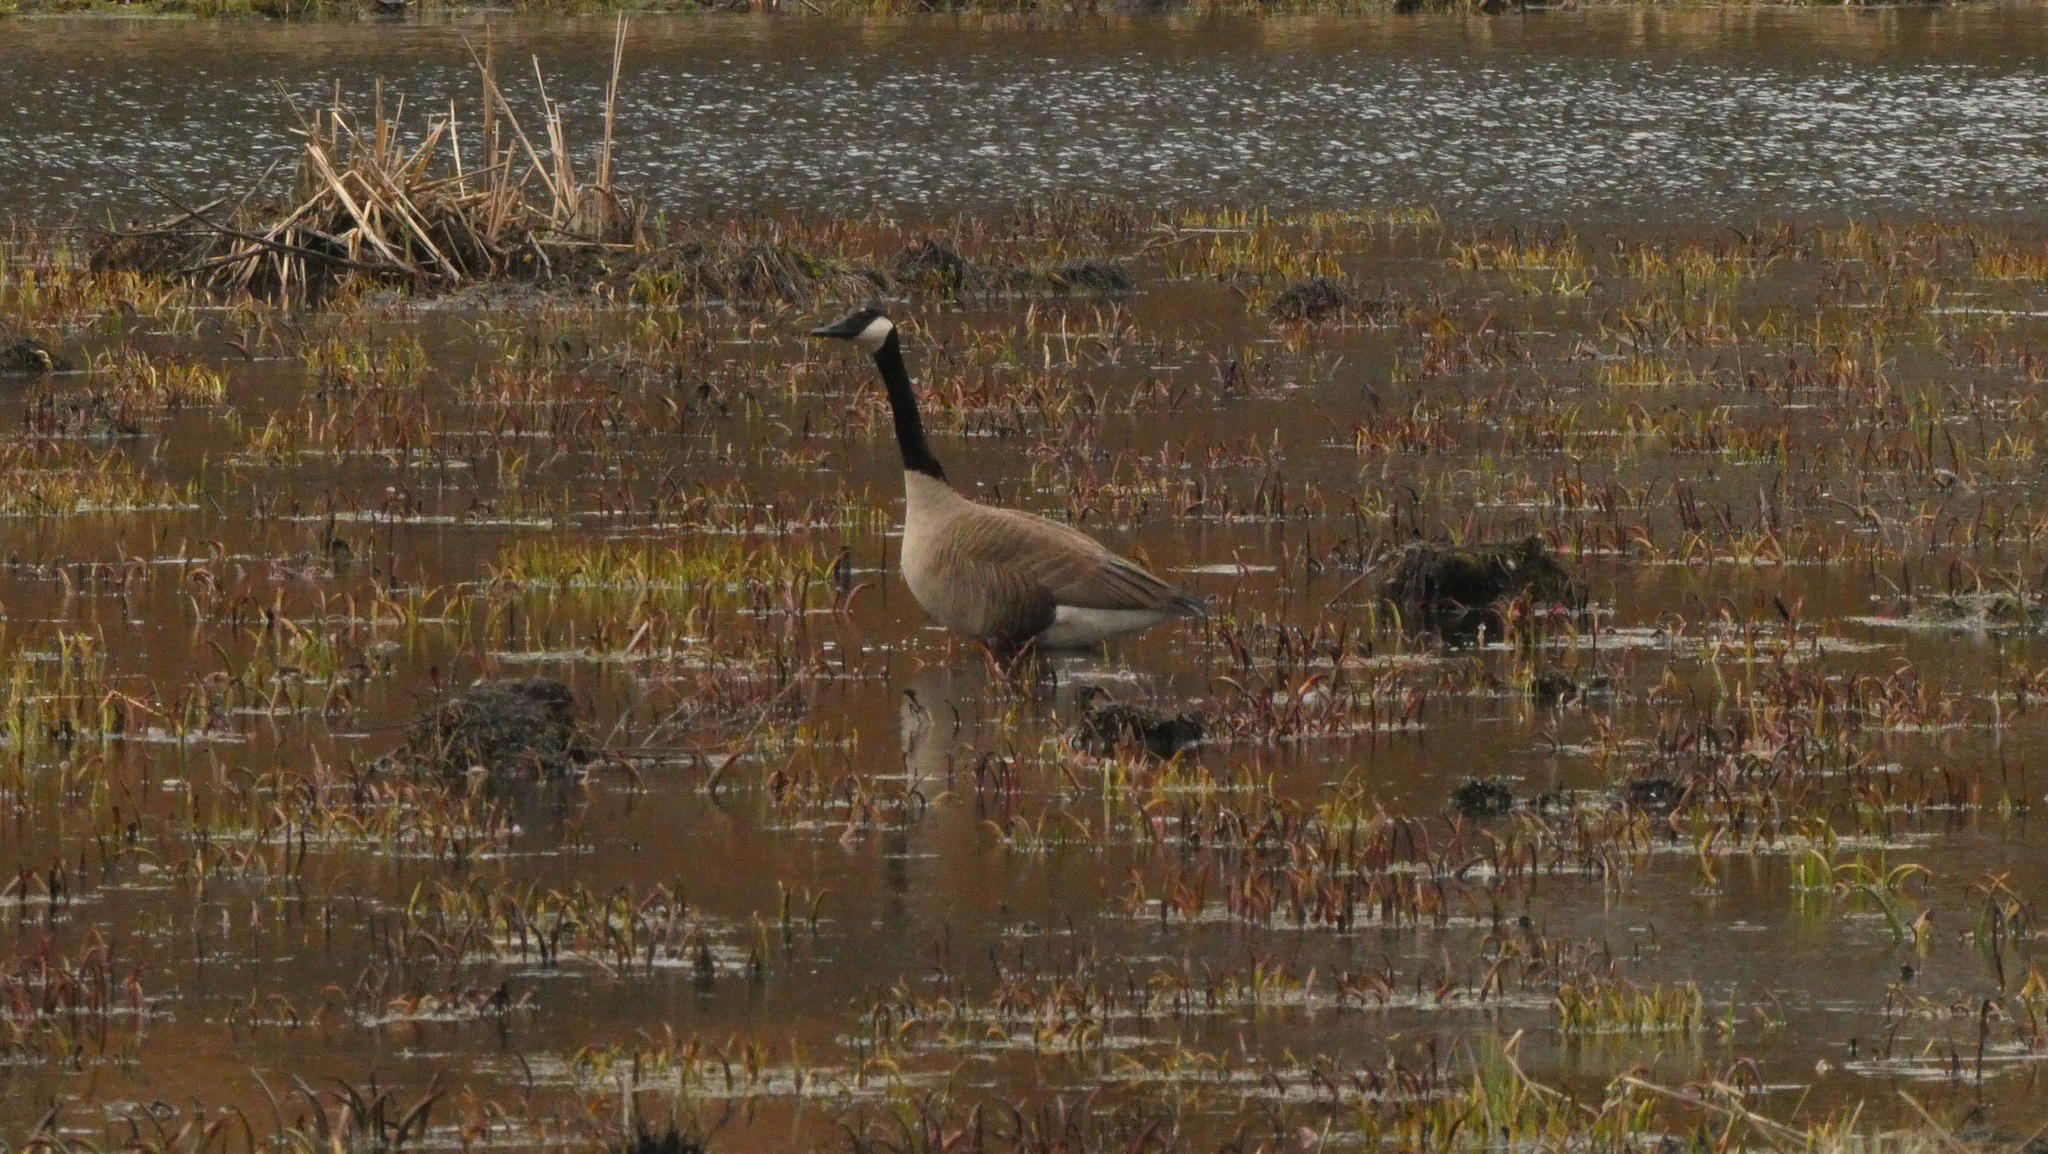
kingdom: Animalia
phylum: Chordata
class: Aves
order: Anseriformes
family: Anatidae
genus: Branta
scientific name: Branta canadensis
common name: Canada goose
